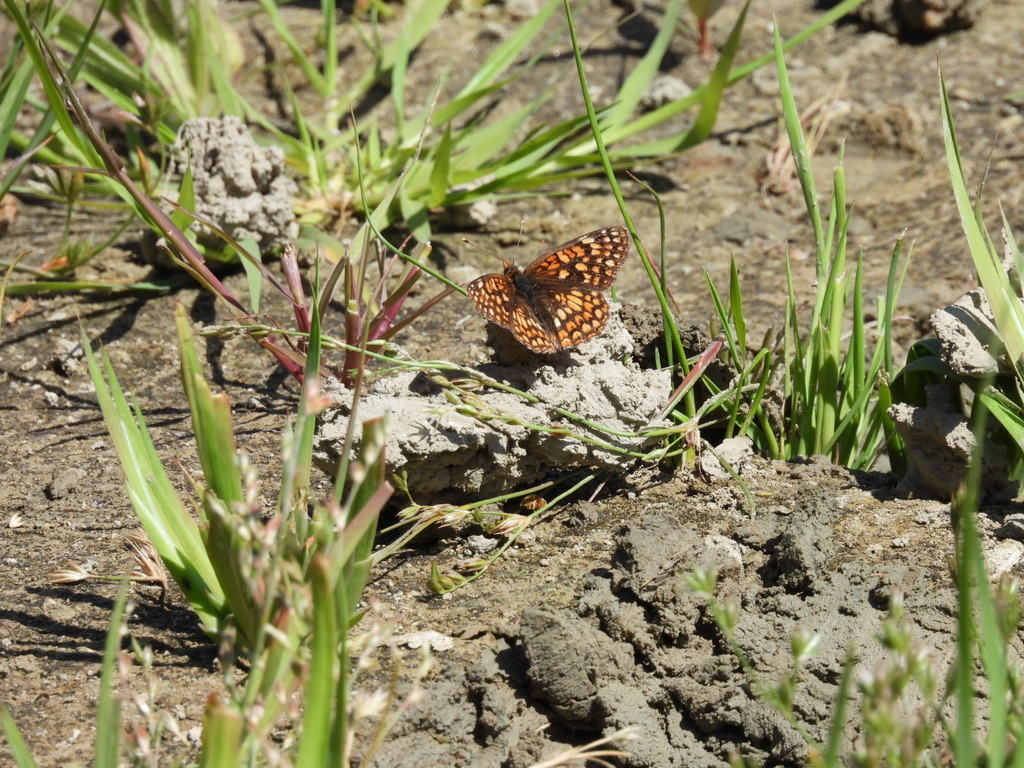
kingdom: Animalia
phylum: Arthropoda
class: Insecta
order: Lepidoptera
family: Nymphalidae
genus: Chlosyne
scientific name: Chlosyne palla
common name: Northern checkerspot
